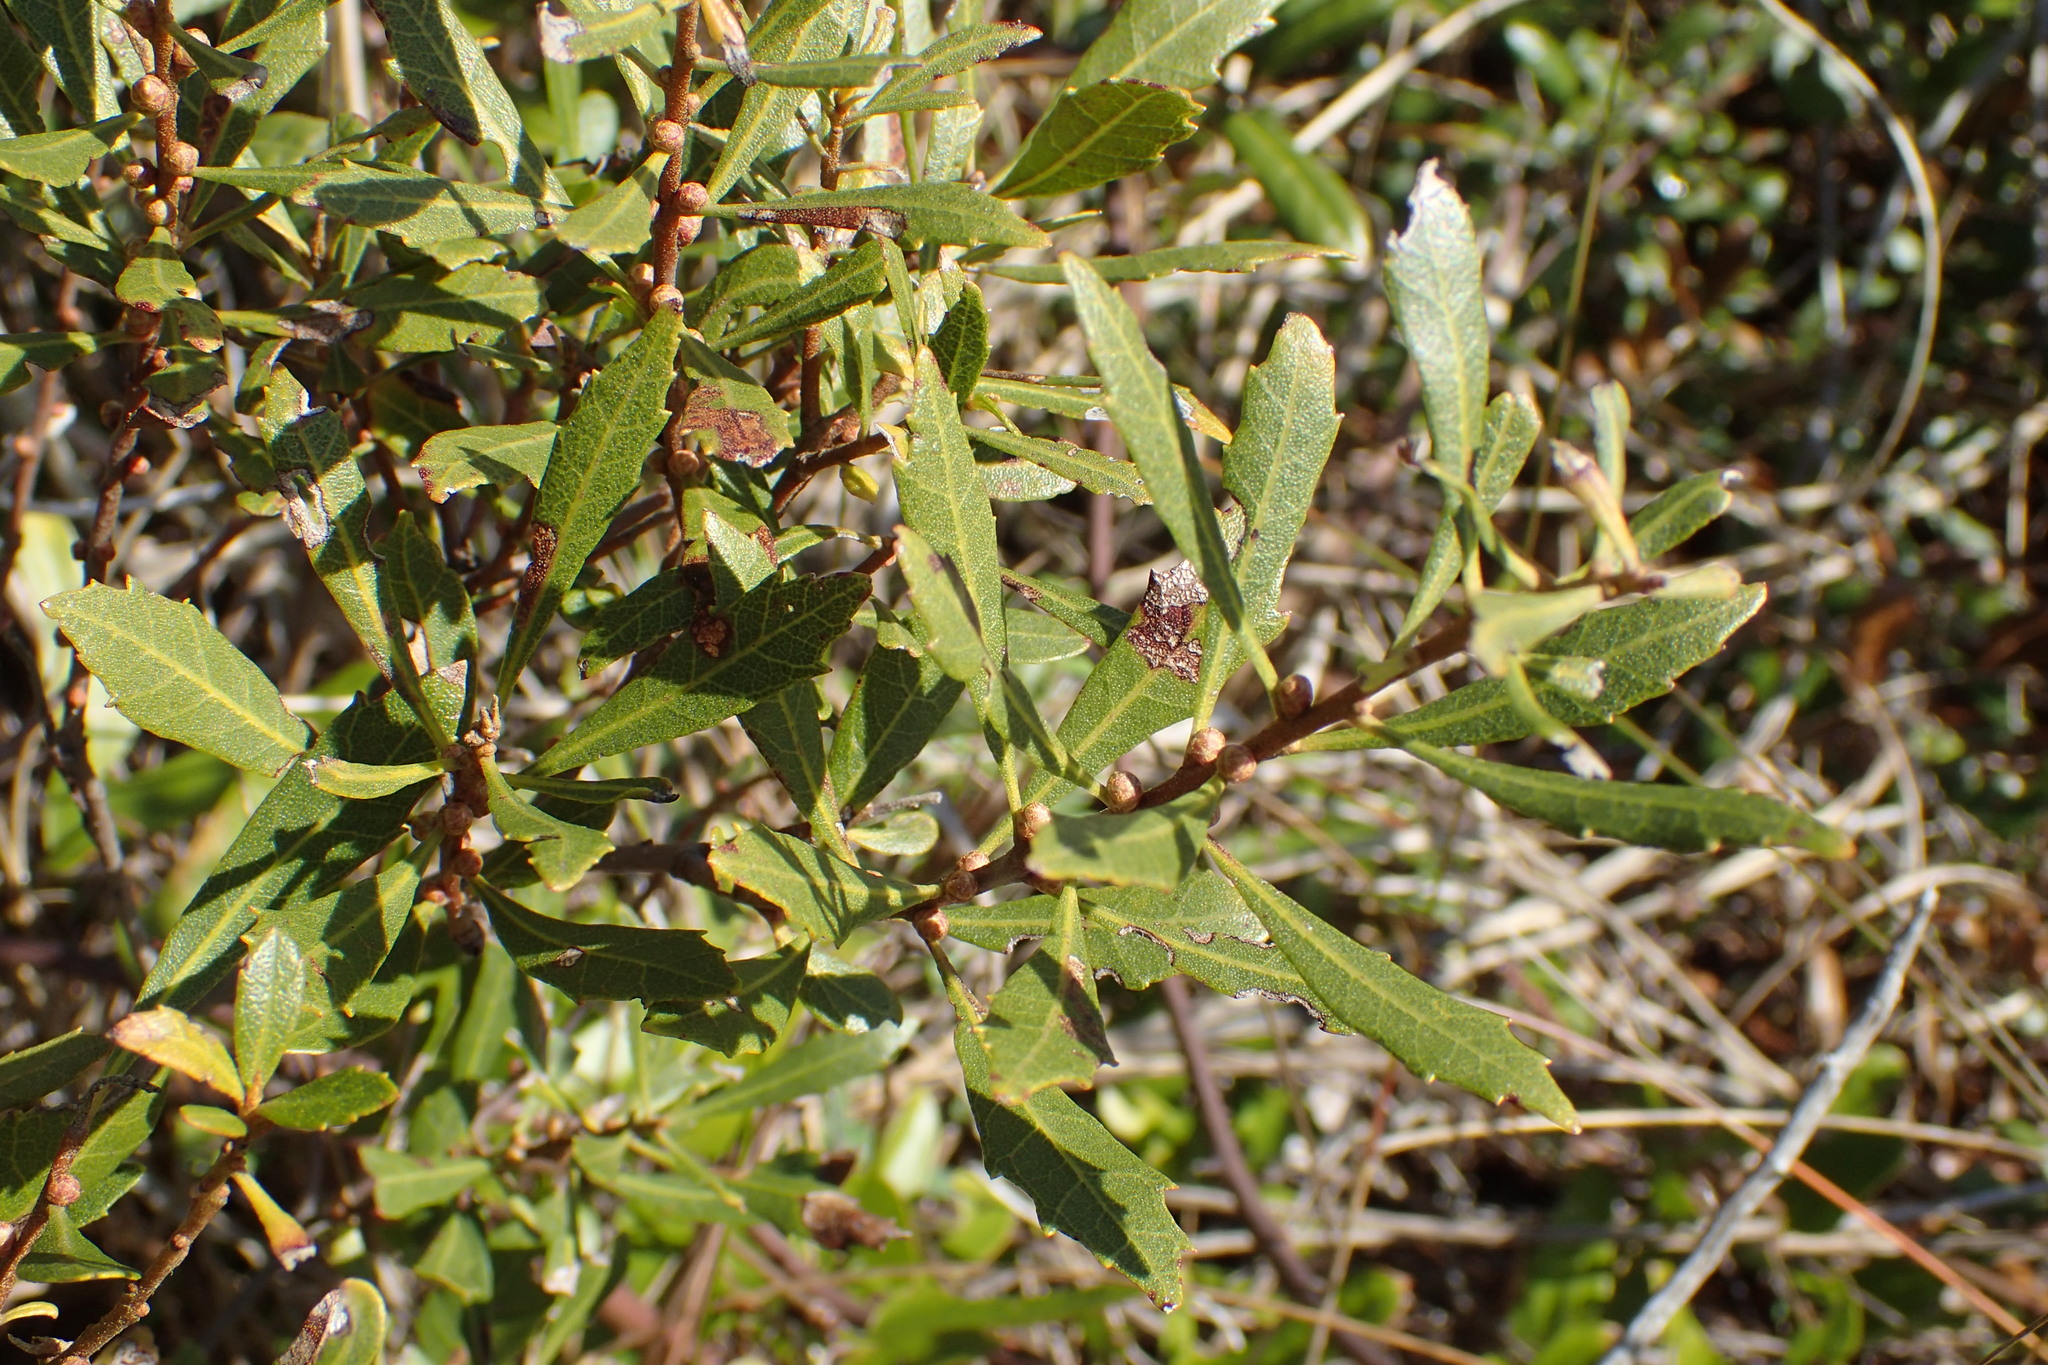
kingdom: Plantae
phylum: Tracheophyta
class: Magnoliopsida
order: Fagales
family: Myricaceae
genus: Morella
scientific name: Morella cerifera
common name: Wax myrtle
